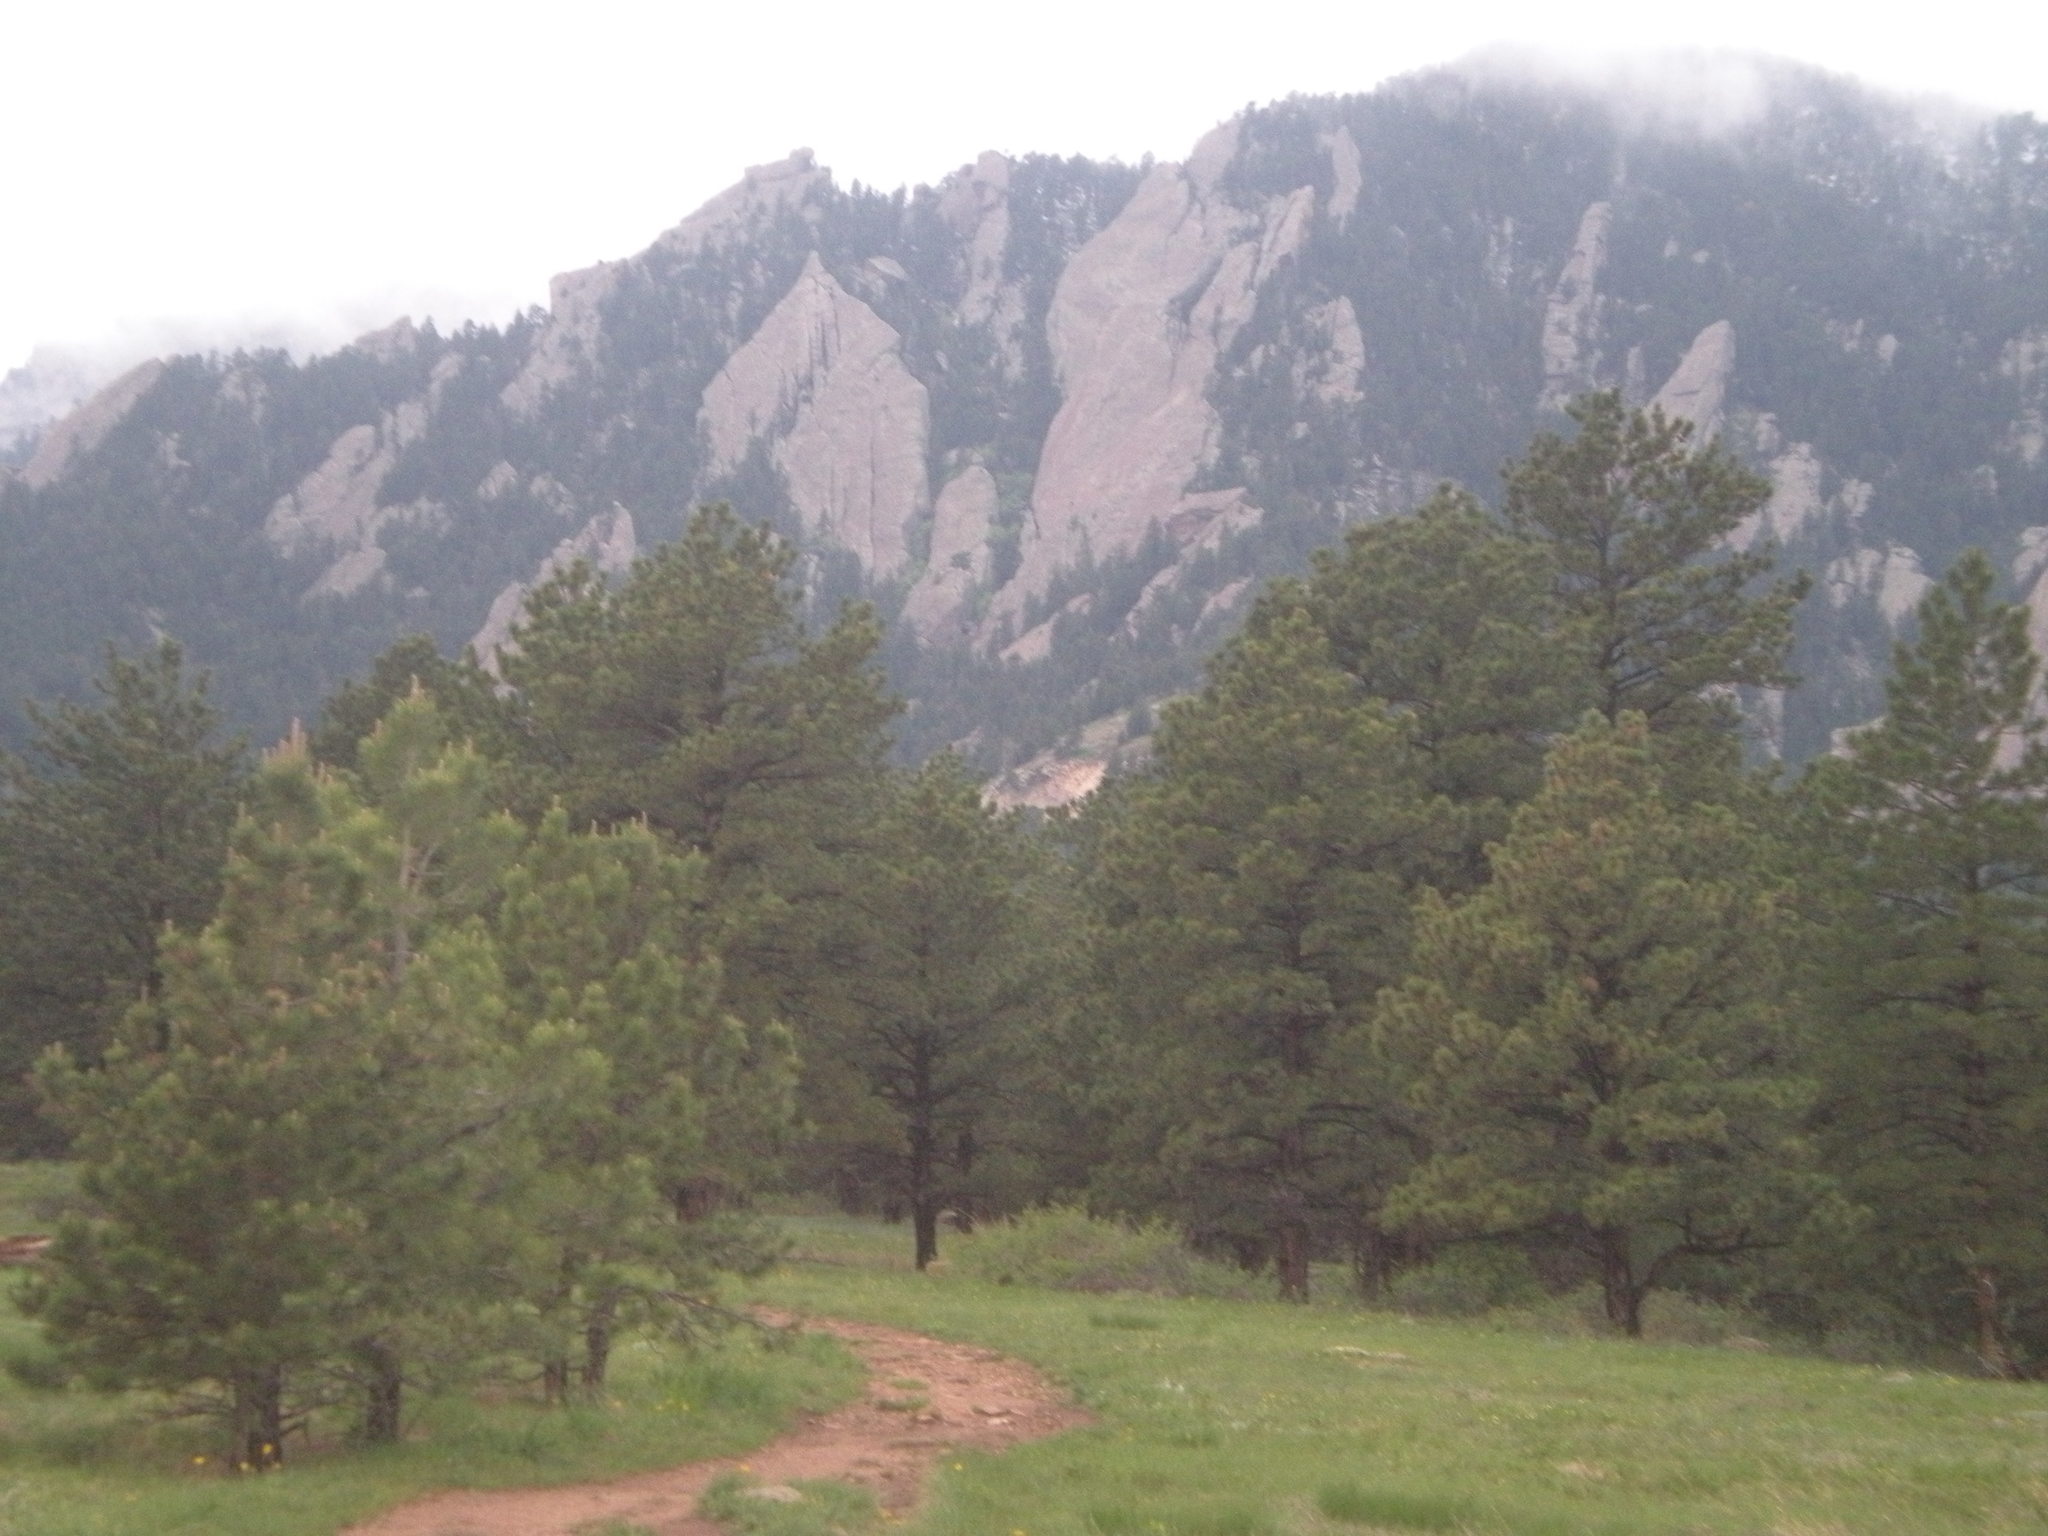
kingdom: Plantae
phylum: Tracheophyta
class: Pinopsida
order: Pinales
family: Pinaceae
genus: Pinus
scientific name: Pinus ponderosa
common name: Western yellow-pine
